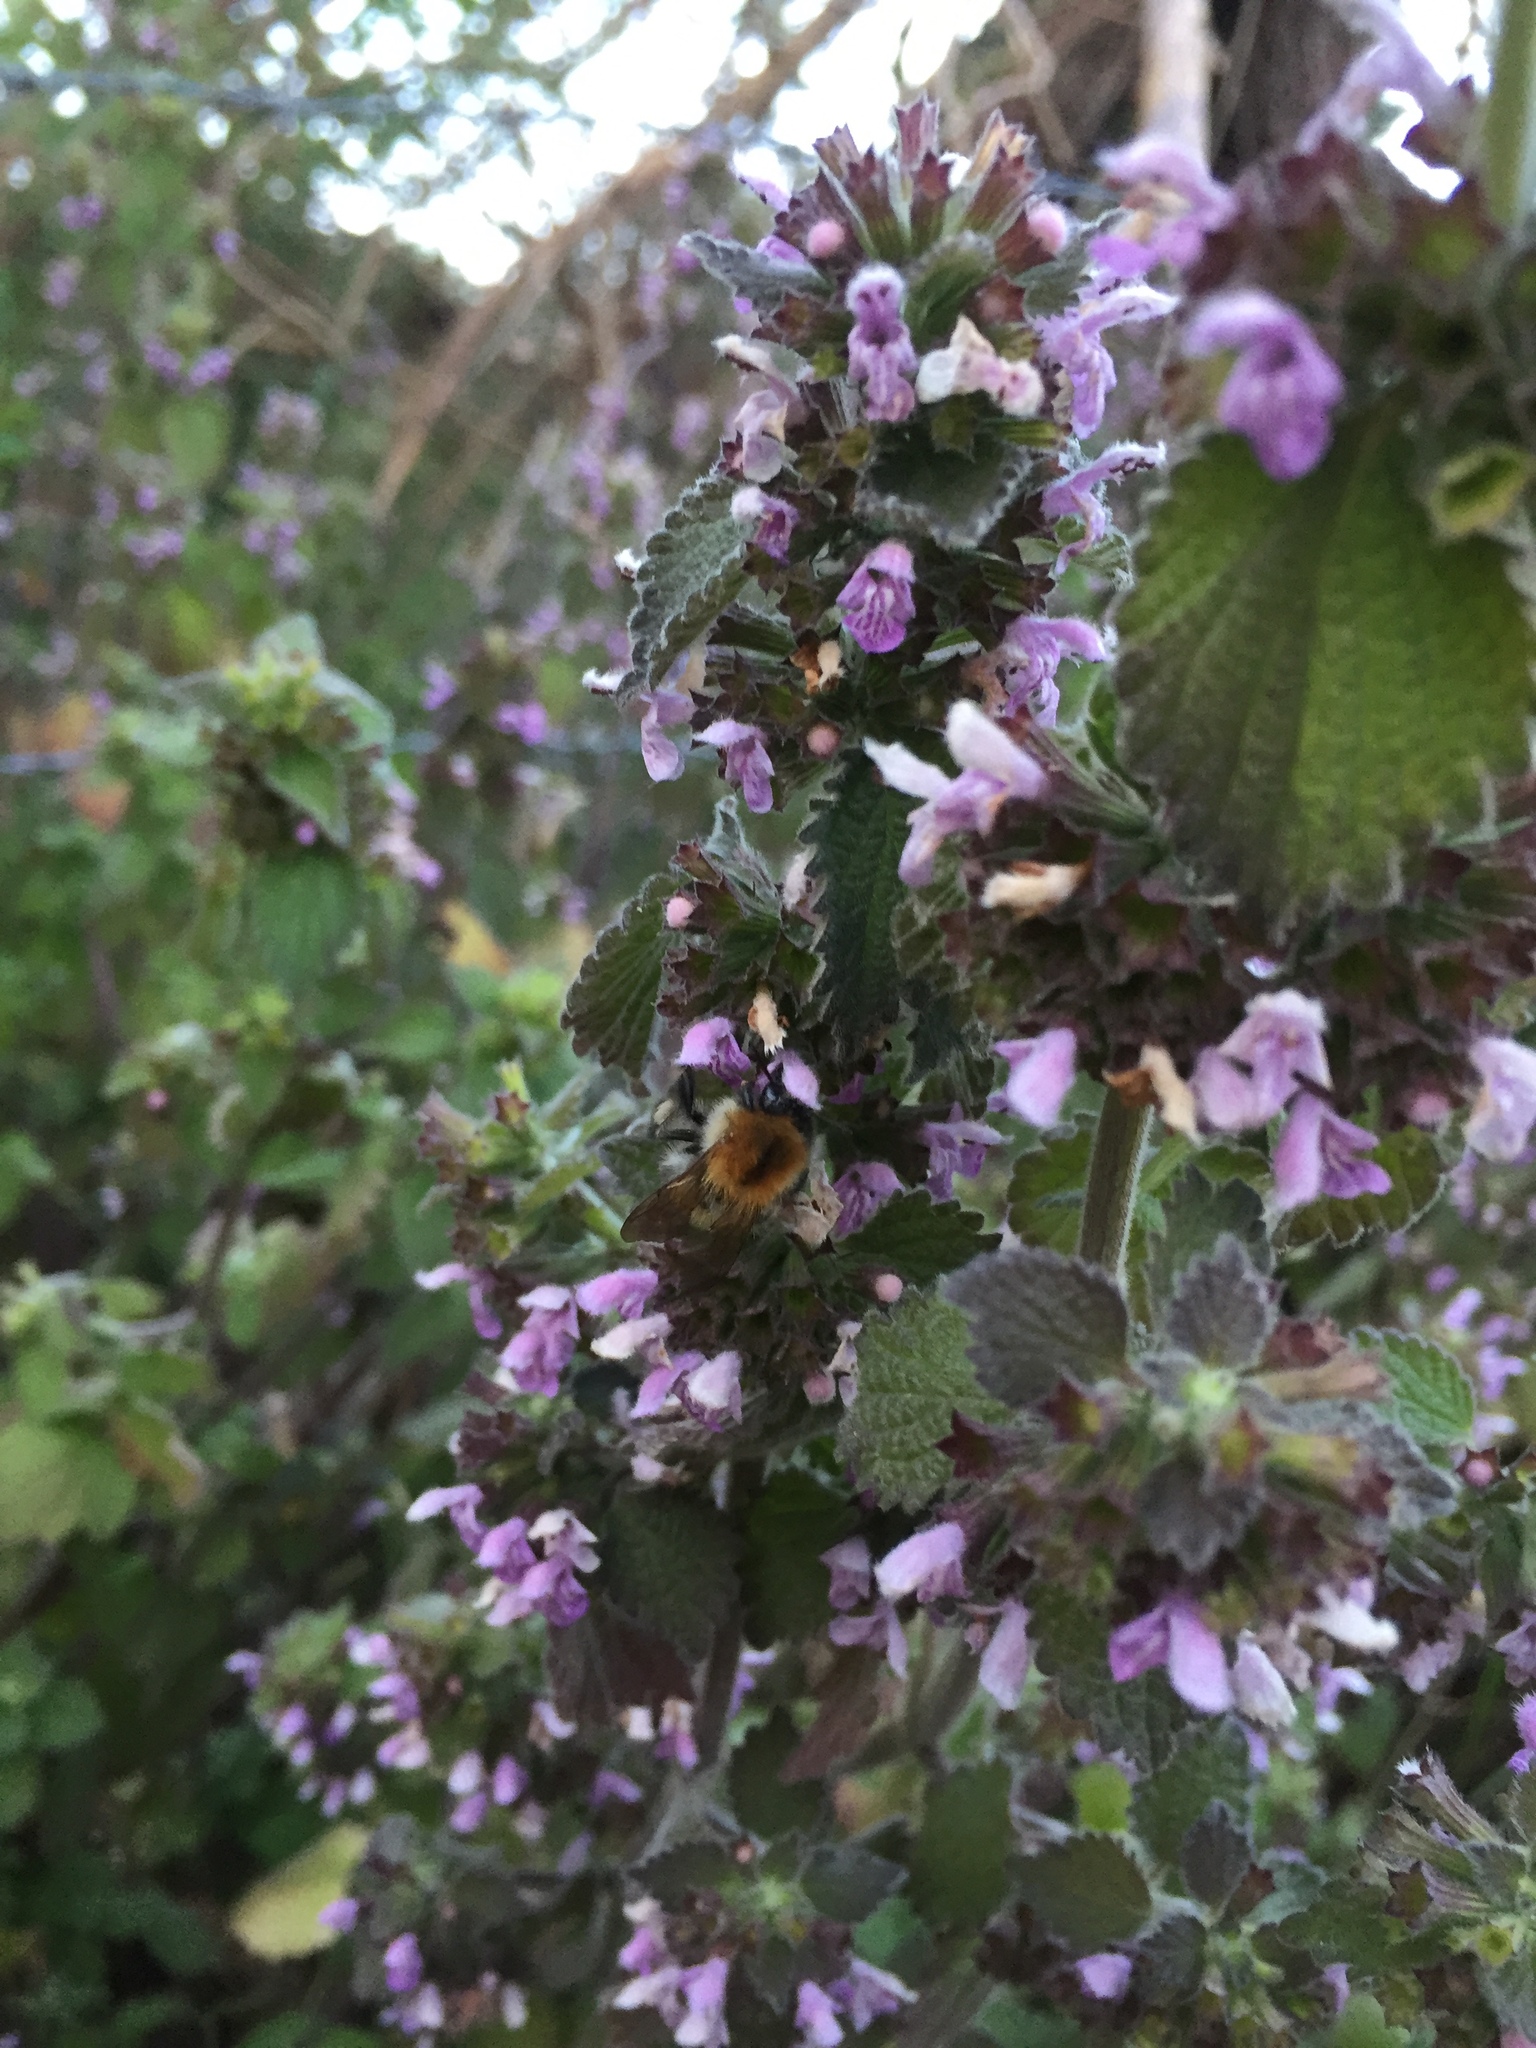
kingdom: Plantae
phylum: Tracheophyta
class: Magnoliopsida
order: Lamiales
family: Lamiaceae
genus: Ballota
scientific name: Ballota nigra
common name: Black horehound
